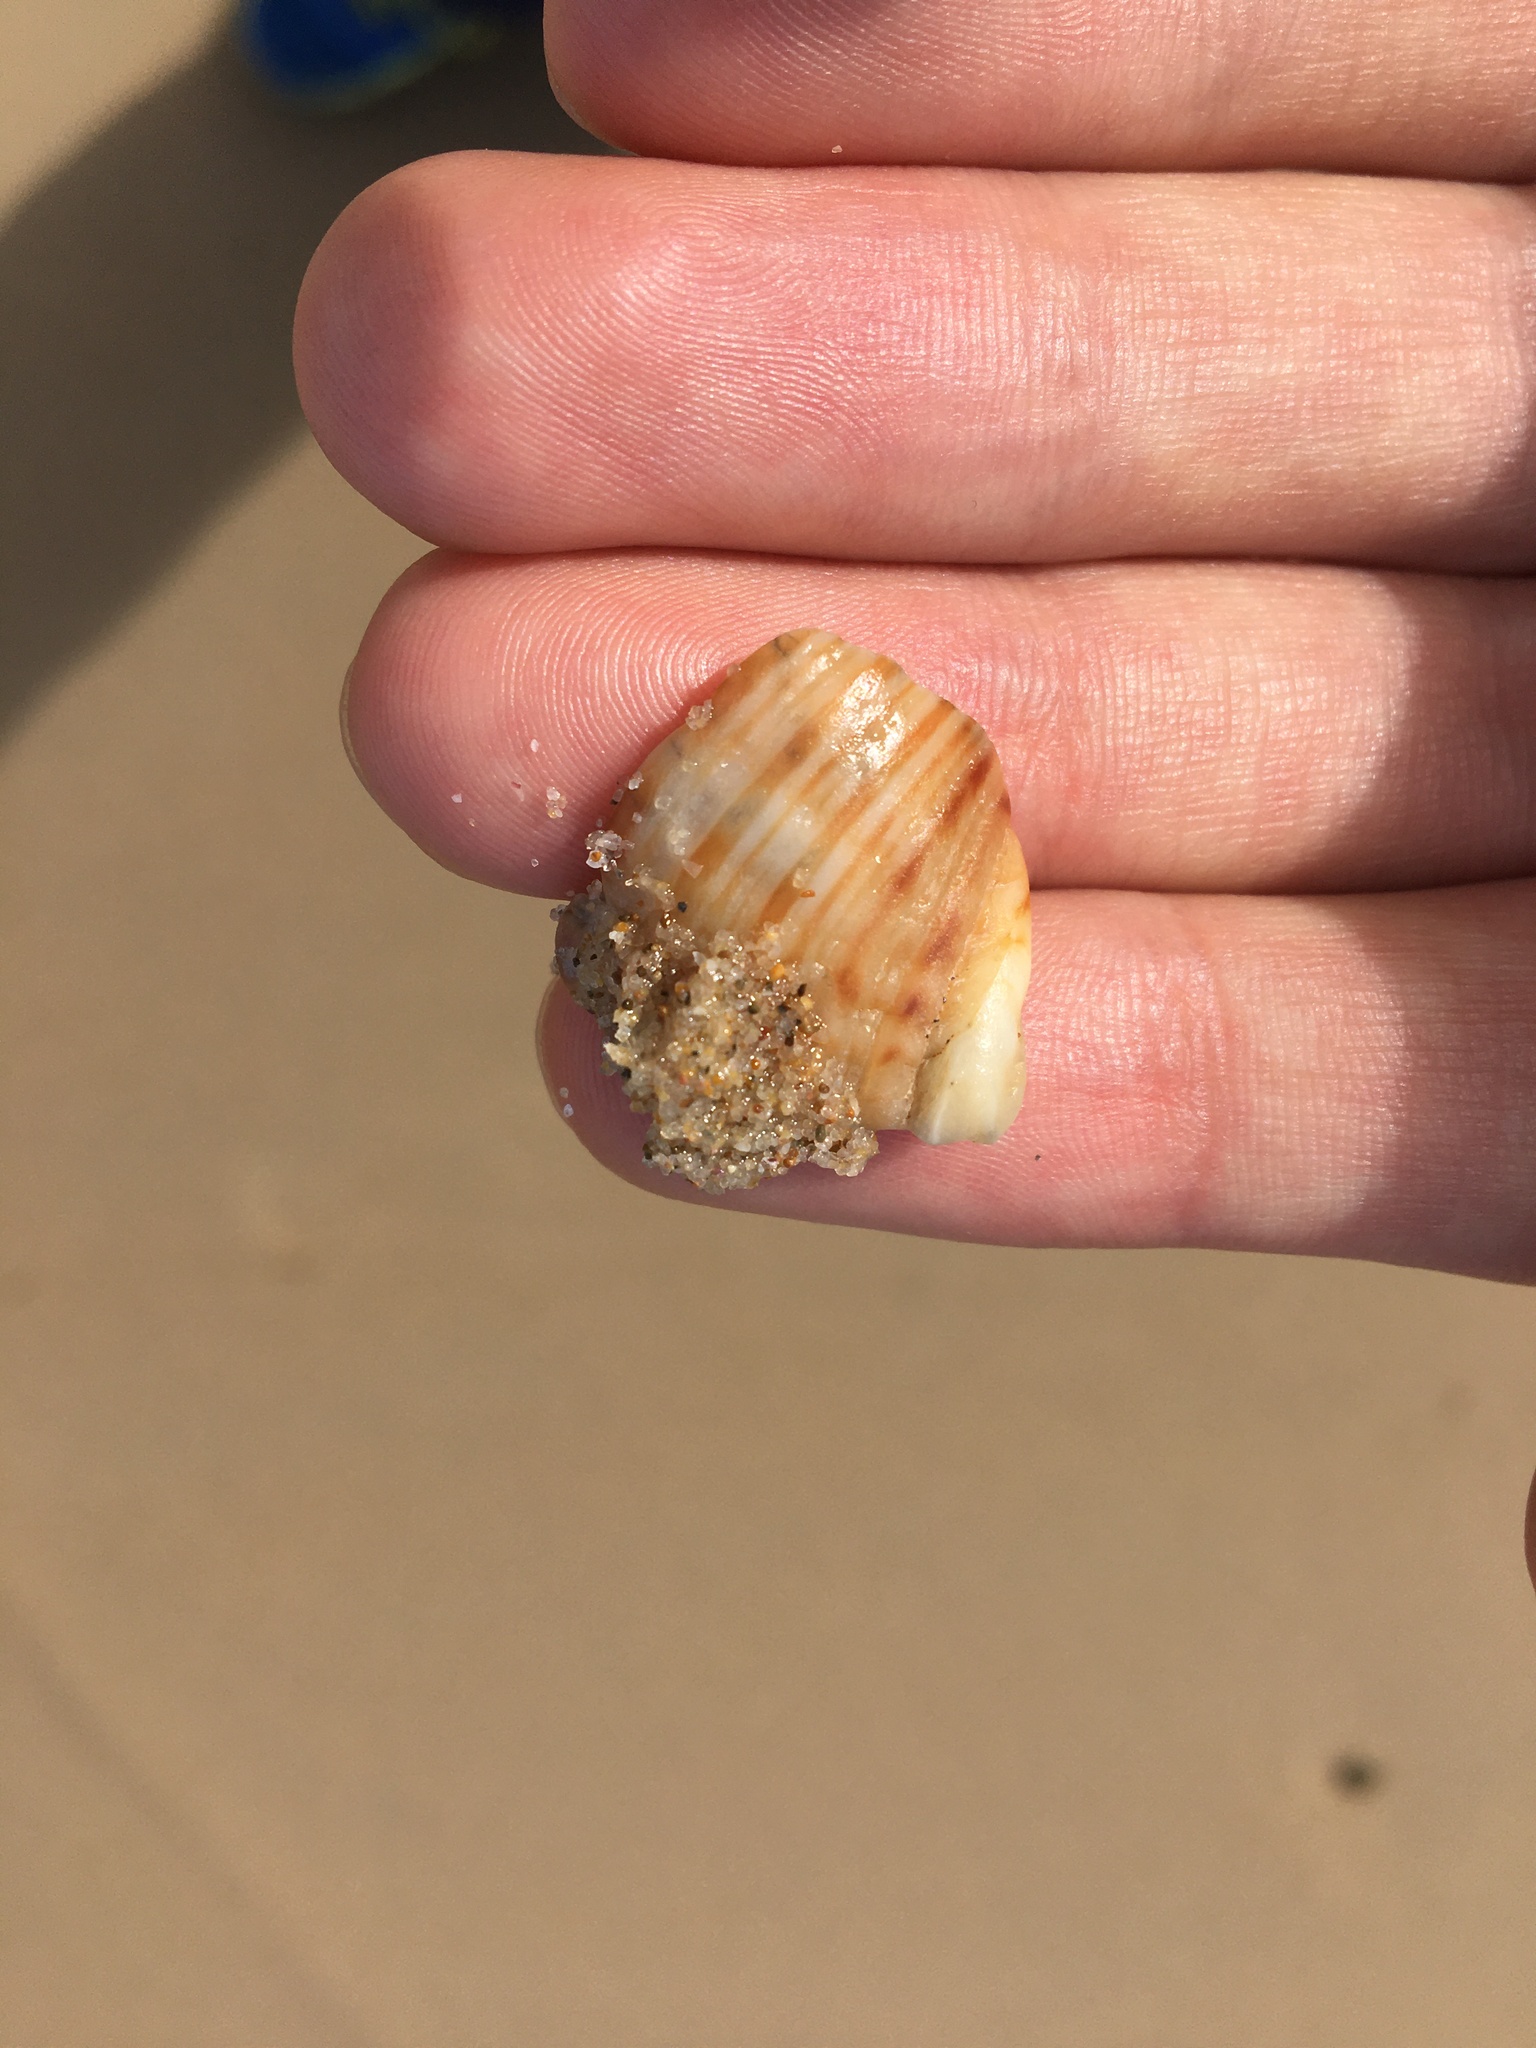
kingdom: Animalia
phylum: Mollusca
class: Gastropoda
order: Neogastropoda
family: Muricidae
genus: Dicathais
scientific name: Dicathais orbita
